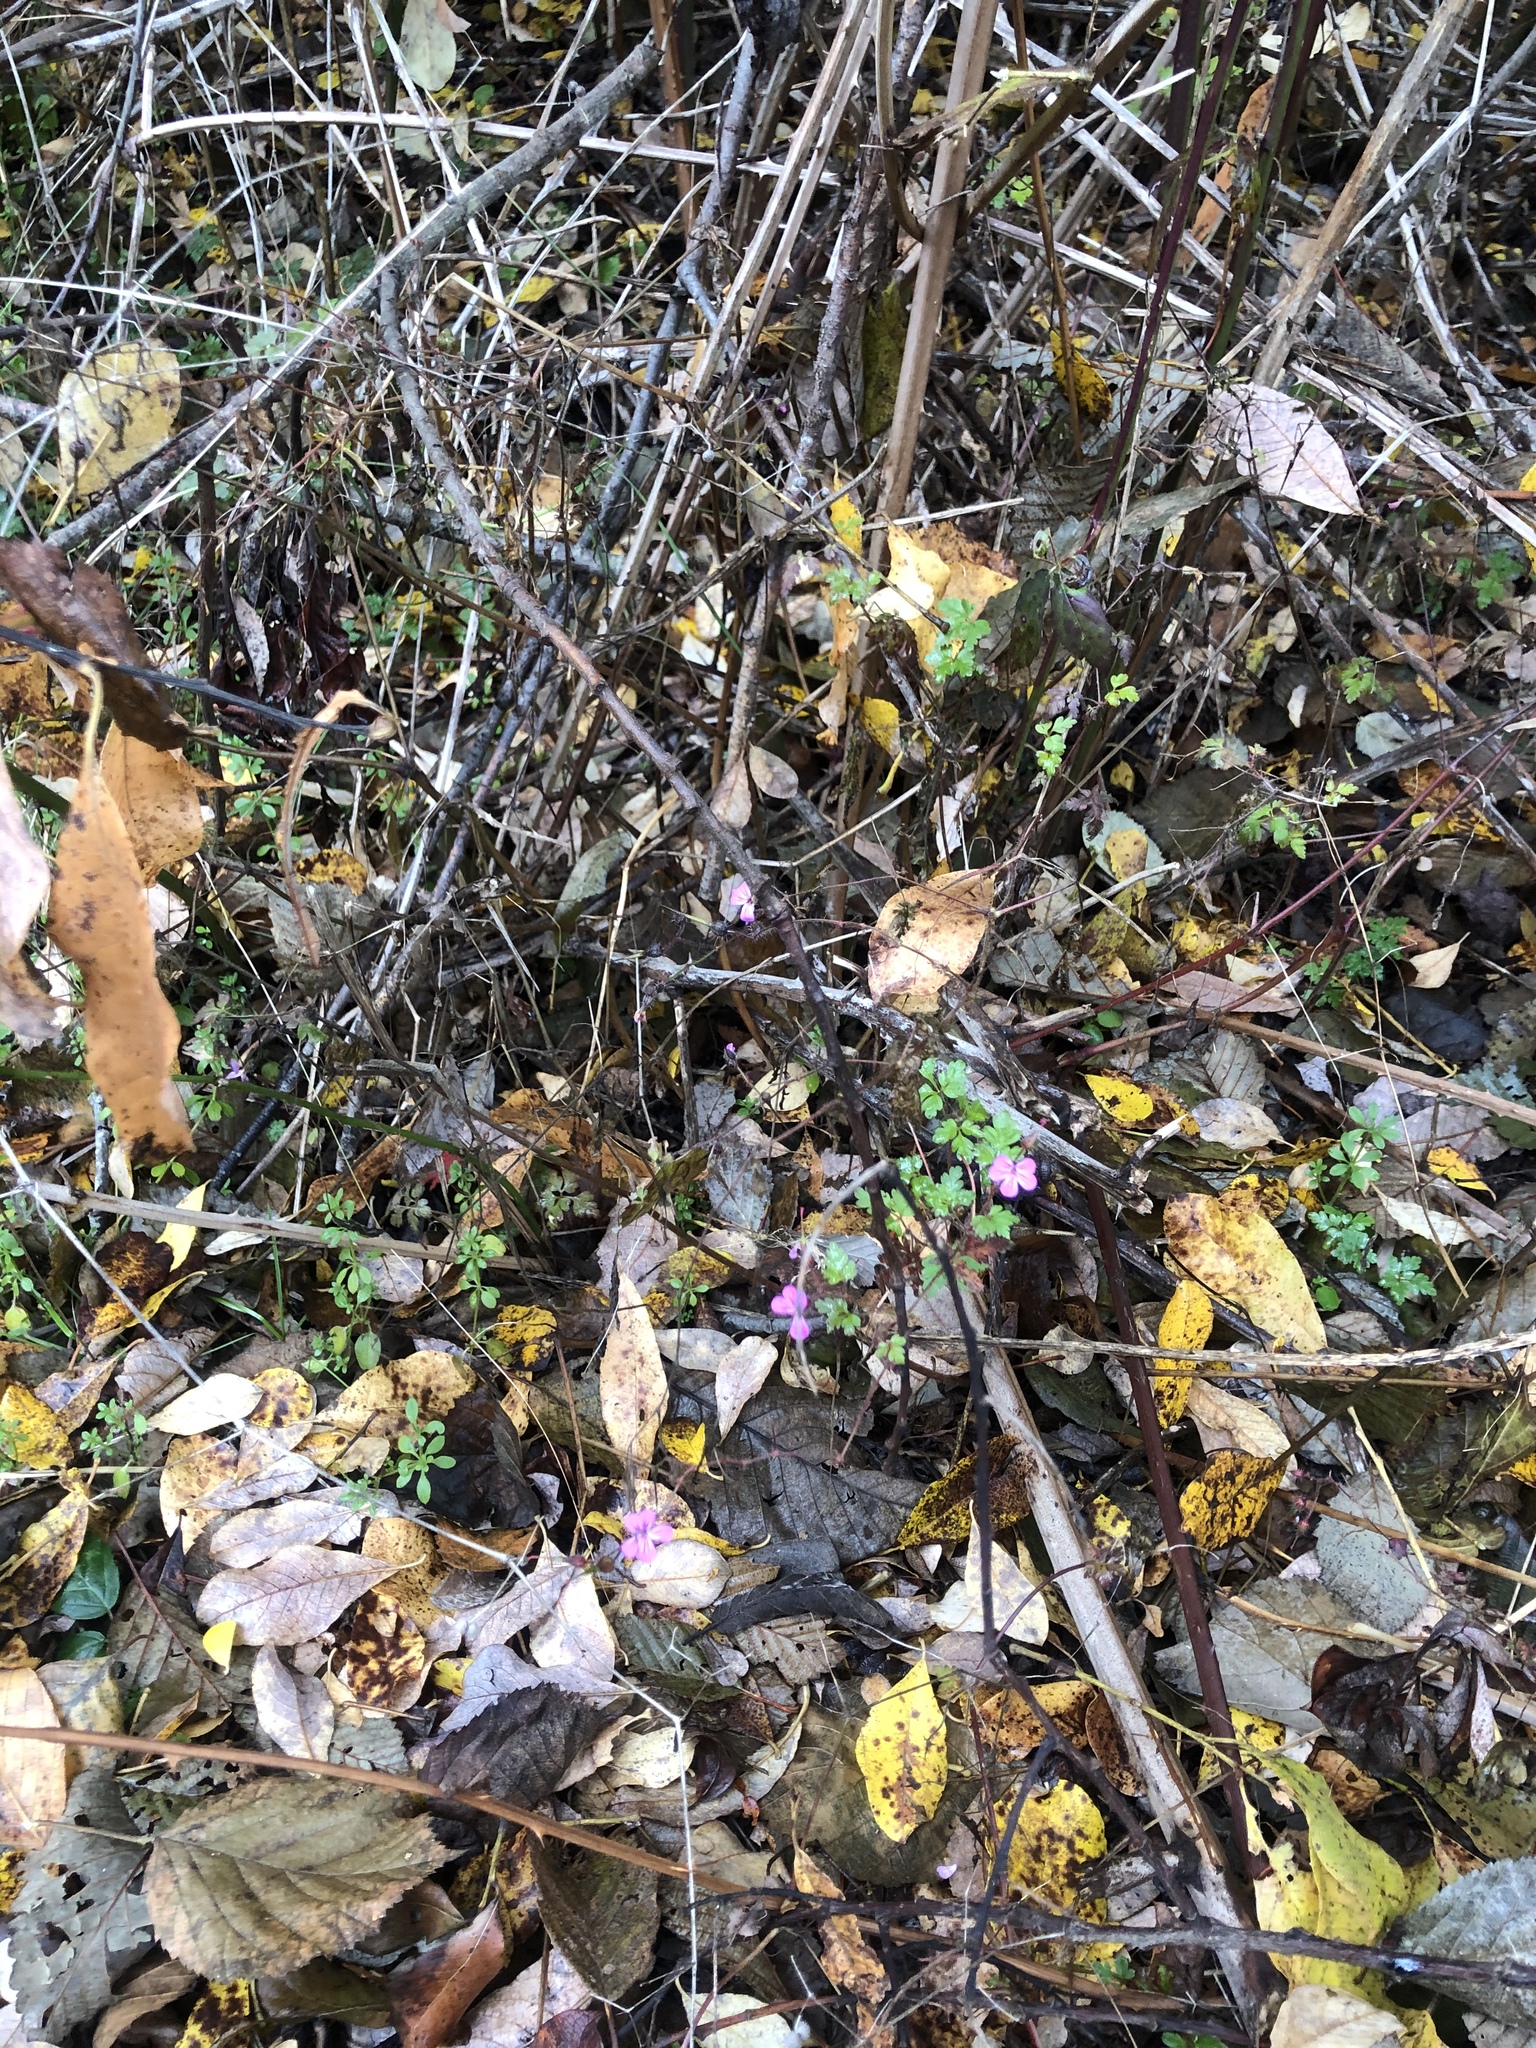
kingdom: Plantae
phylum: Tracheophyta
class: Magnoliopsida
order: Geraniales
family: Geraniaceae
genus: Geranium
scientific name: Geranium robertianum
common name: Herb-robert
